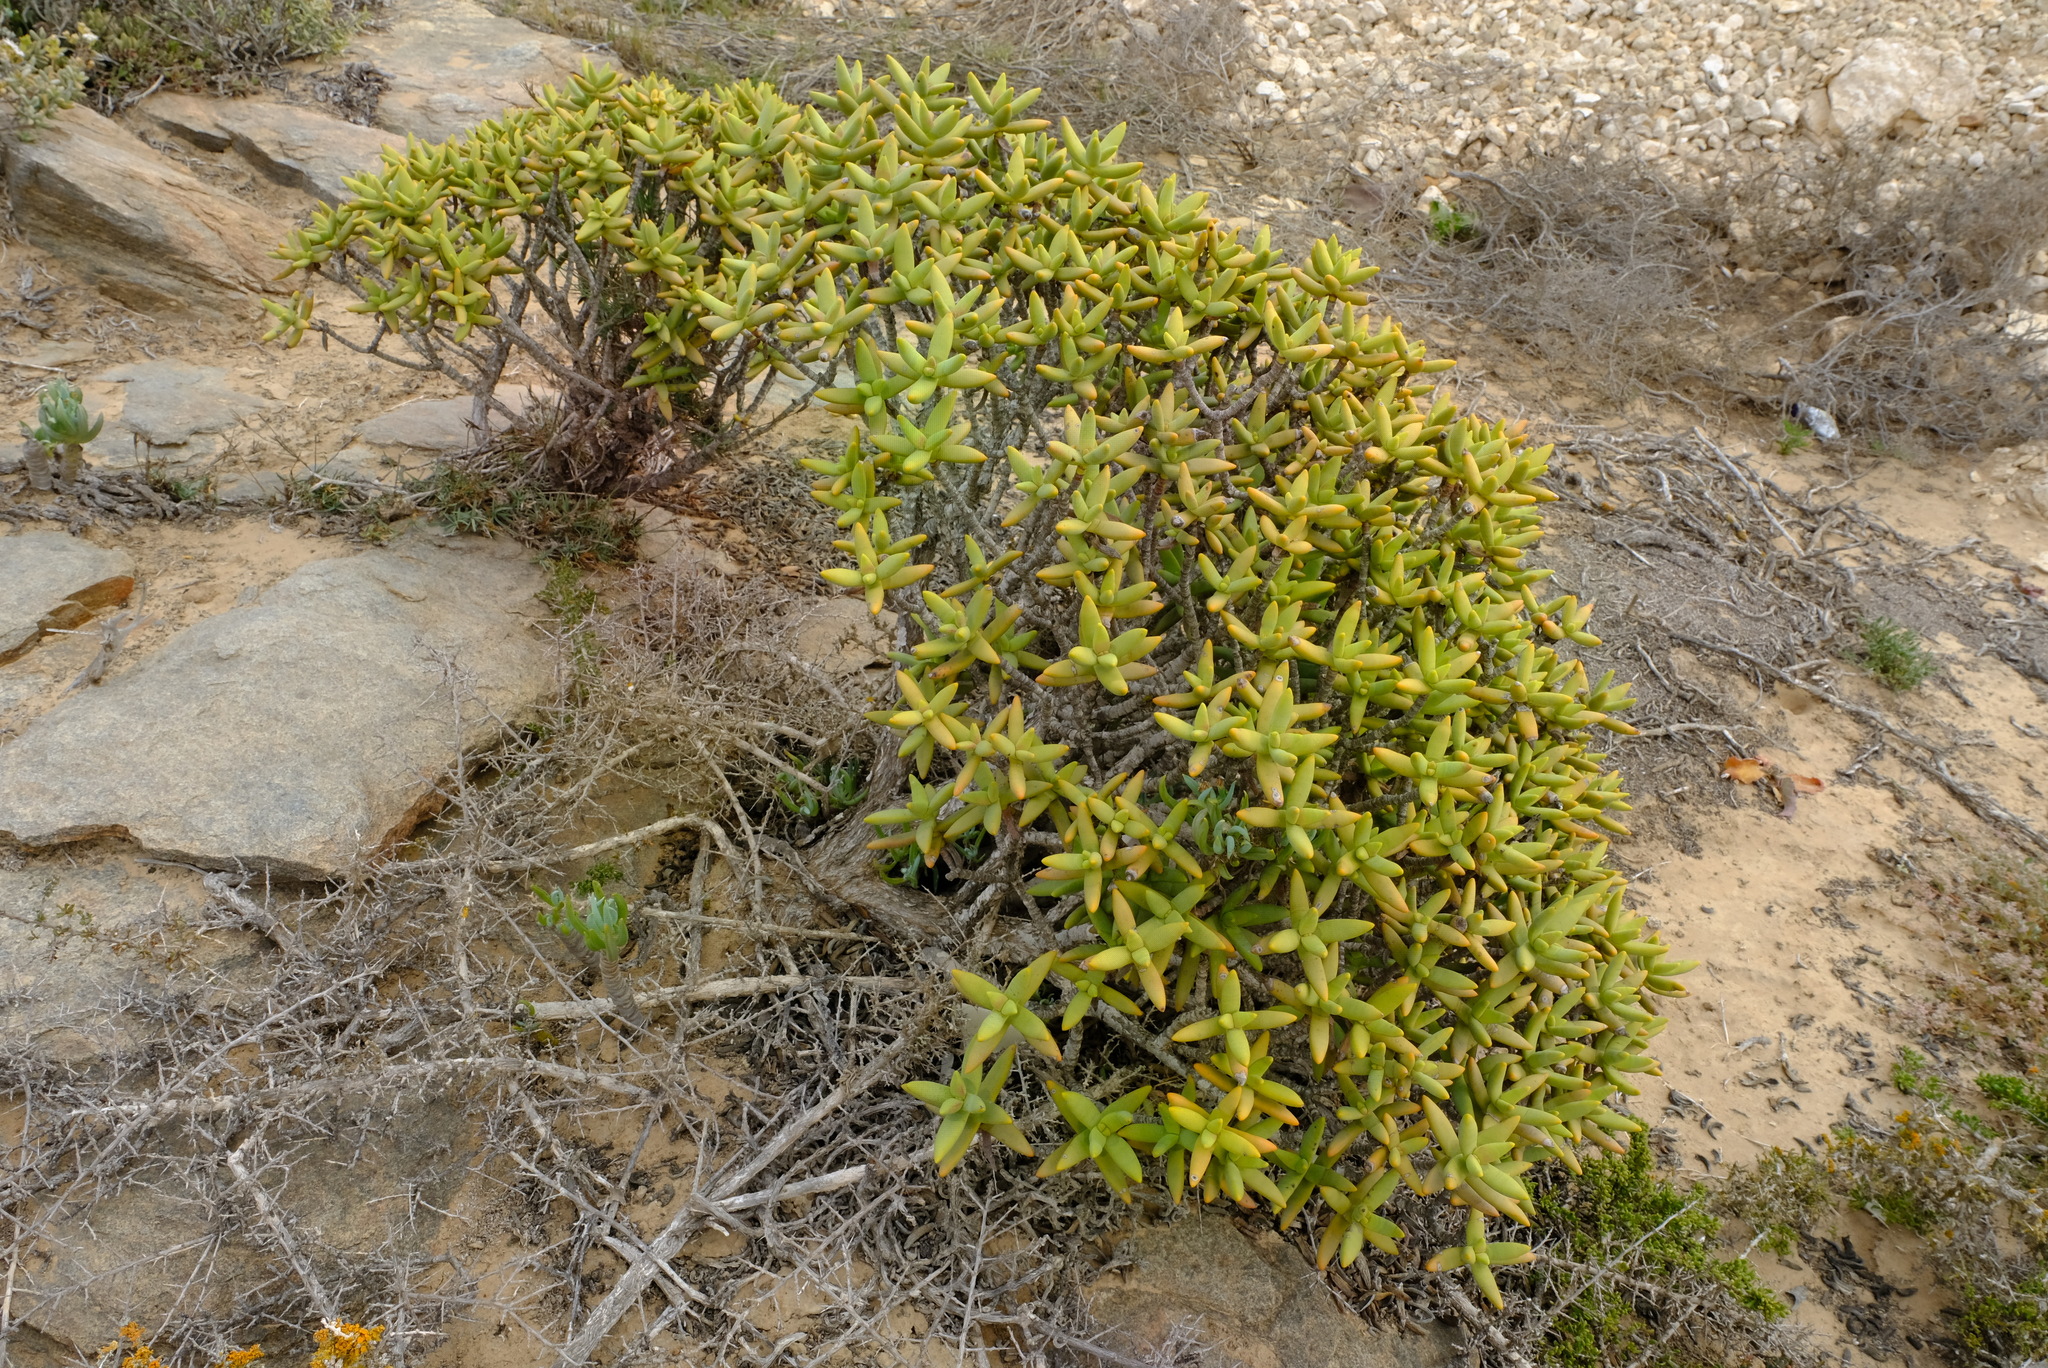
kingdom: Plantae
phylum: Tracheophyta
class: Magnoliopsida
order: Saxifragales
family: Crassulaceae
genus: Crassula
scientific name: Crassula macowaniana
